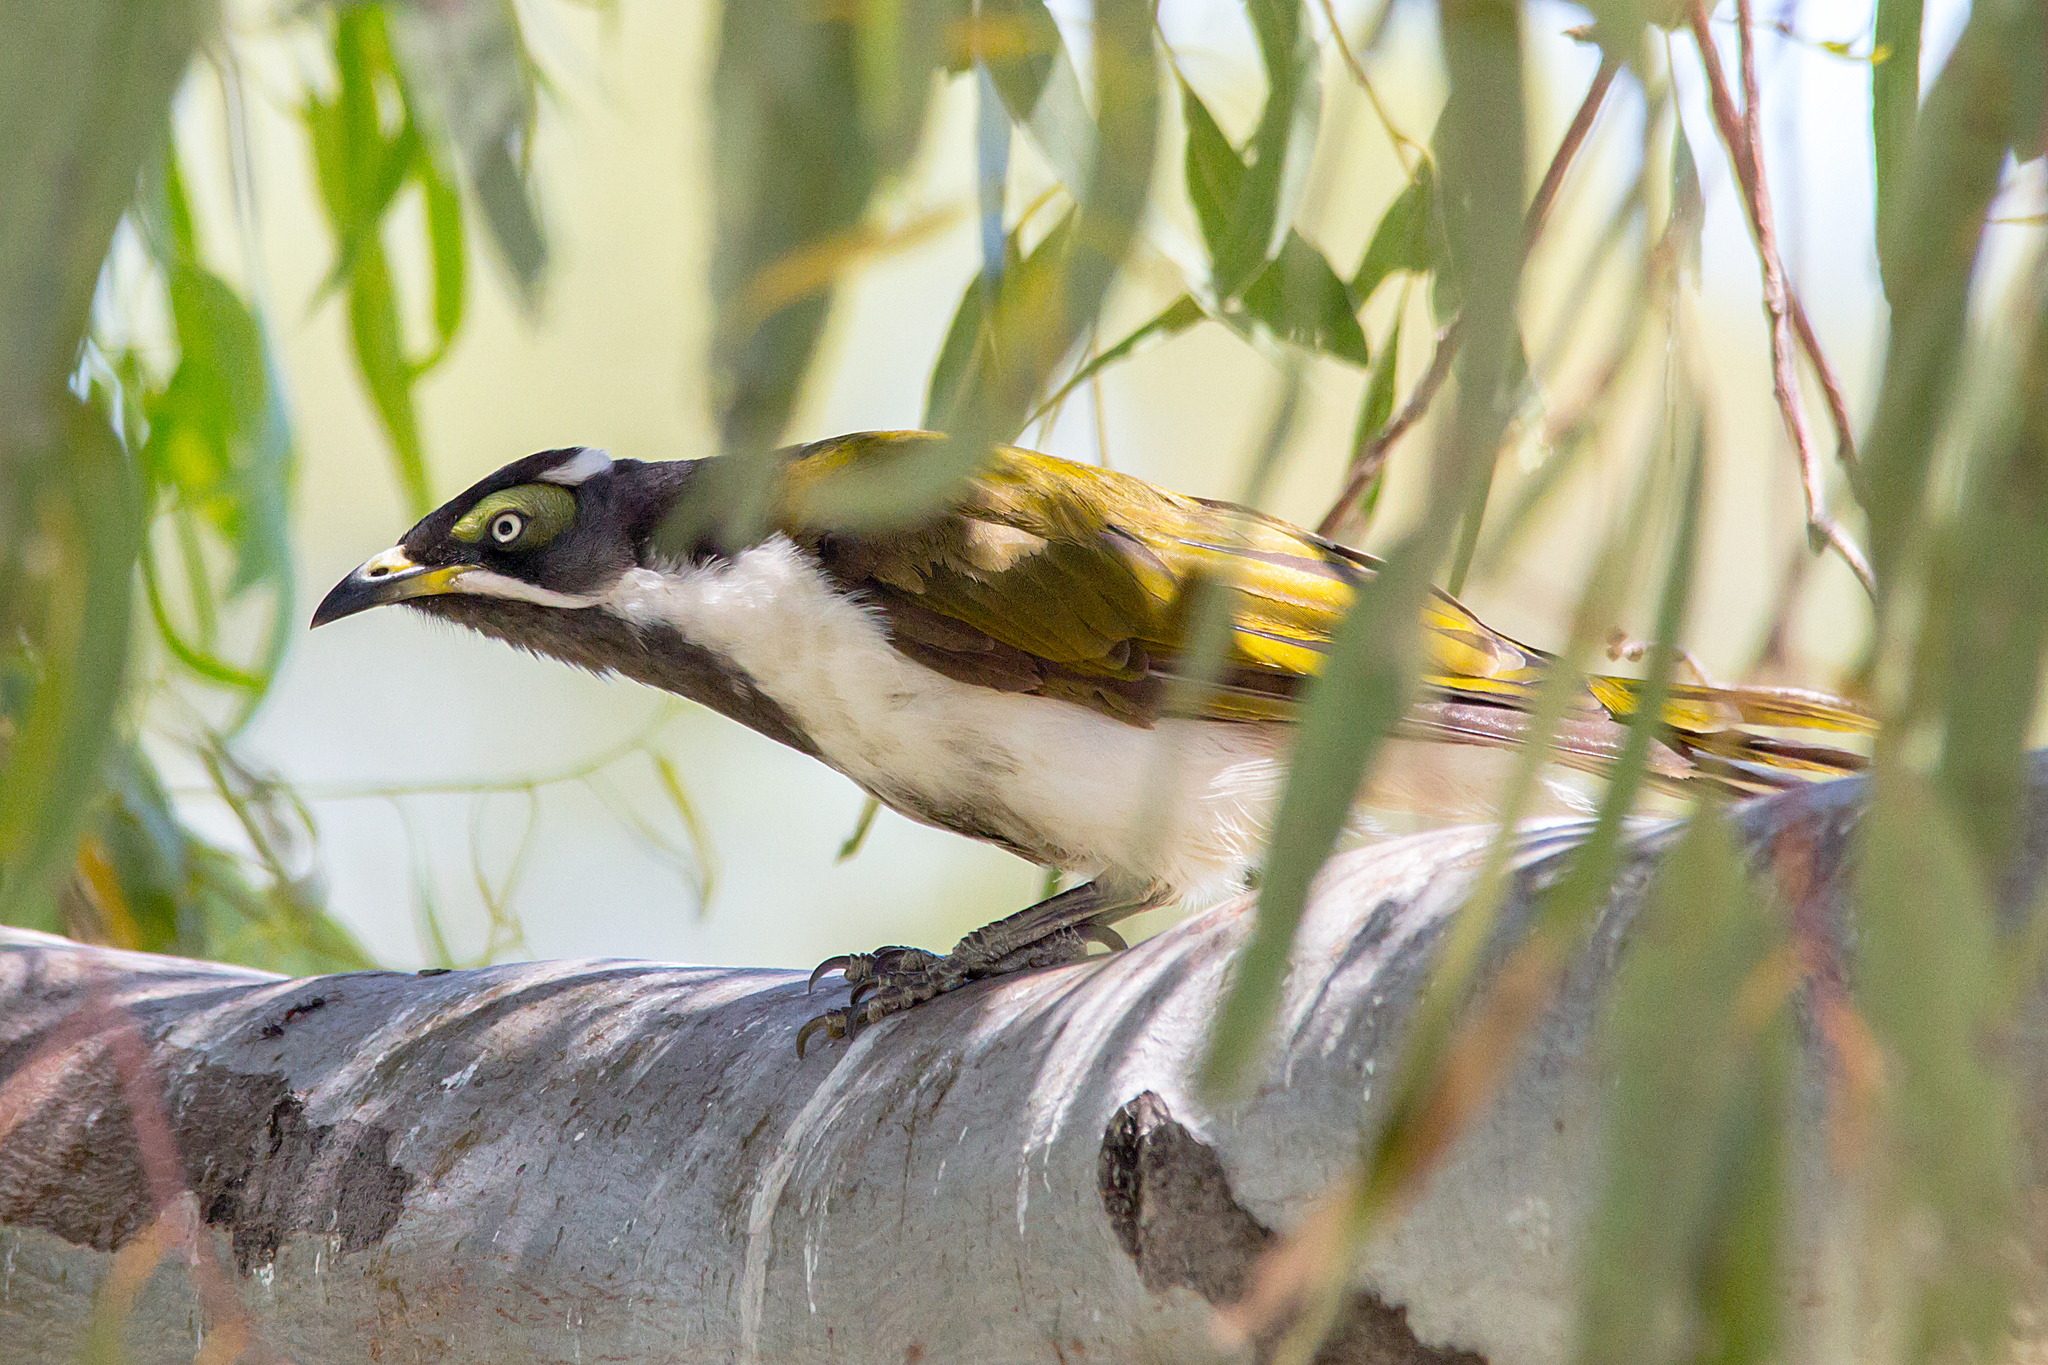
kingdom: Animalia
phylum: Chordata
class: Aves
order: Passeriformes
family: Meliphagidae
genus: Entomyzon
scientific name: Entomyzon cyanotis
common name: Blue-faced honeyeater
